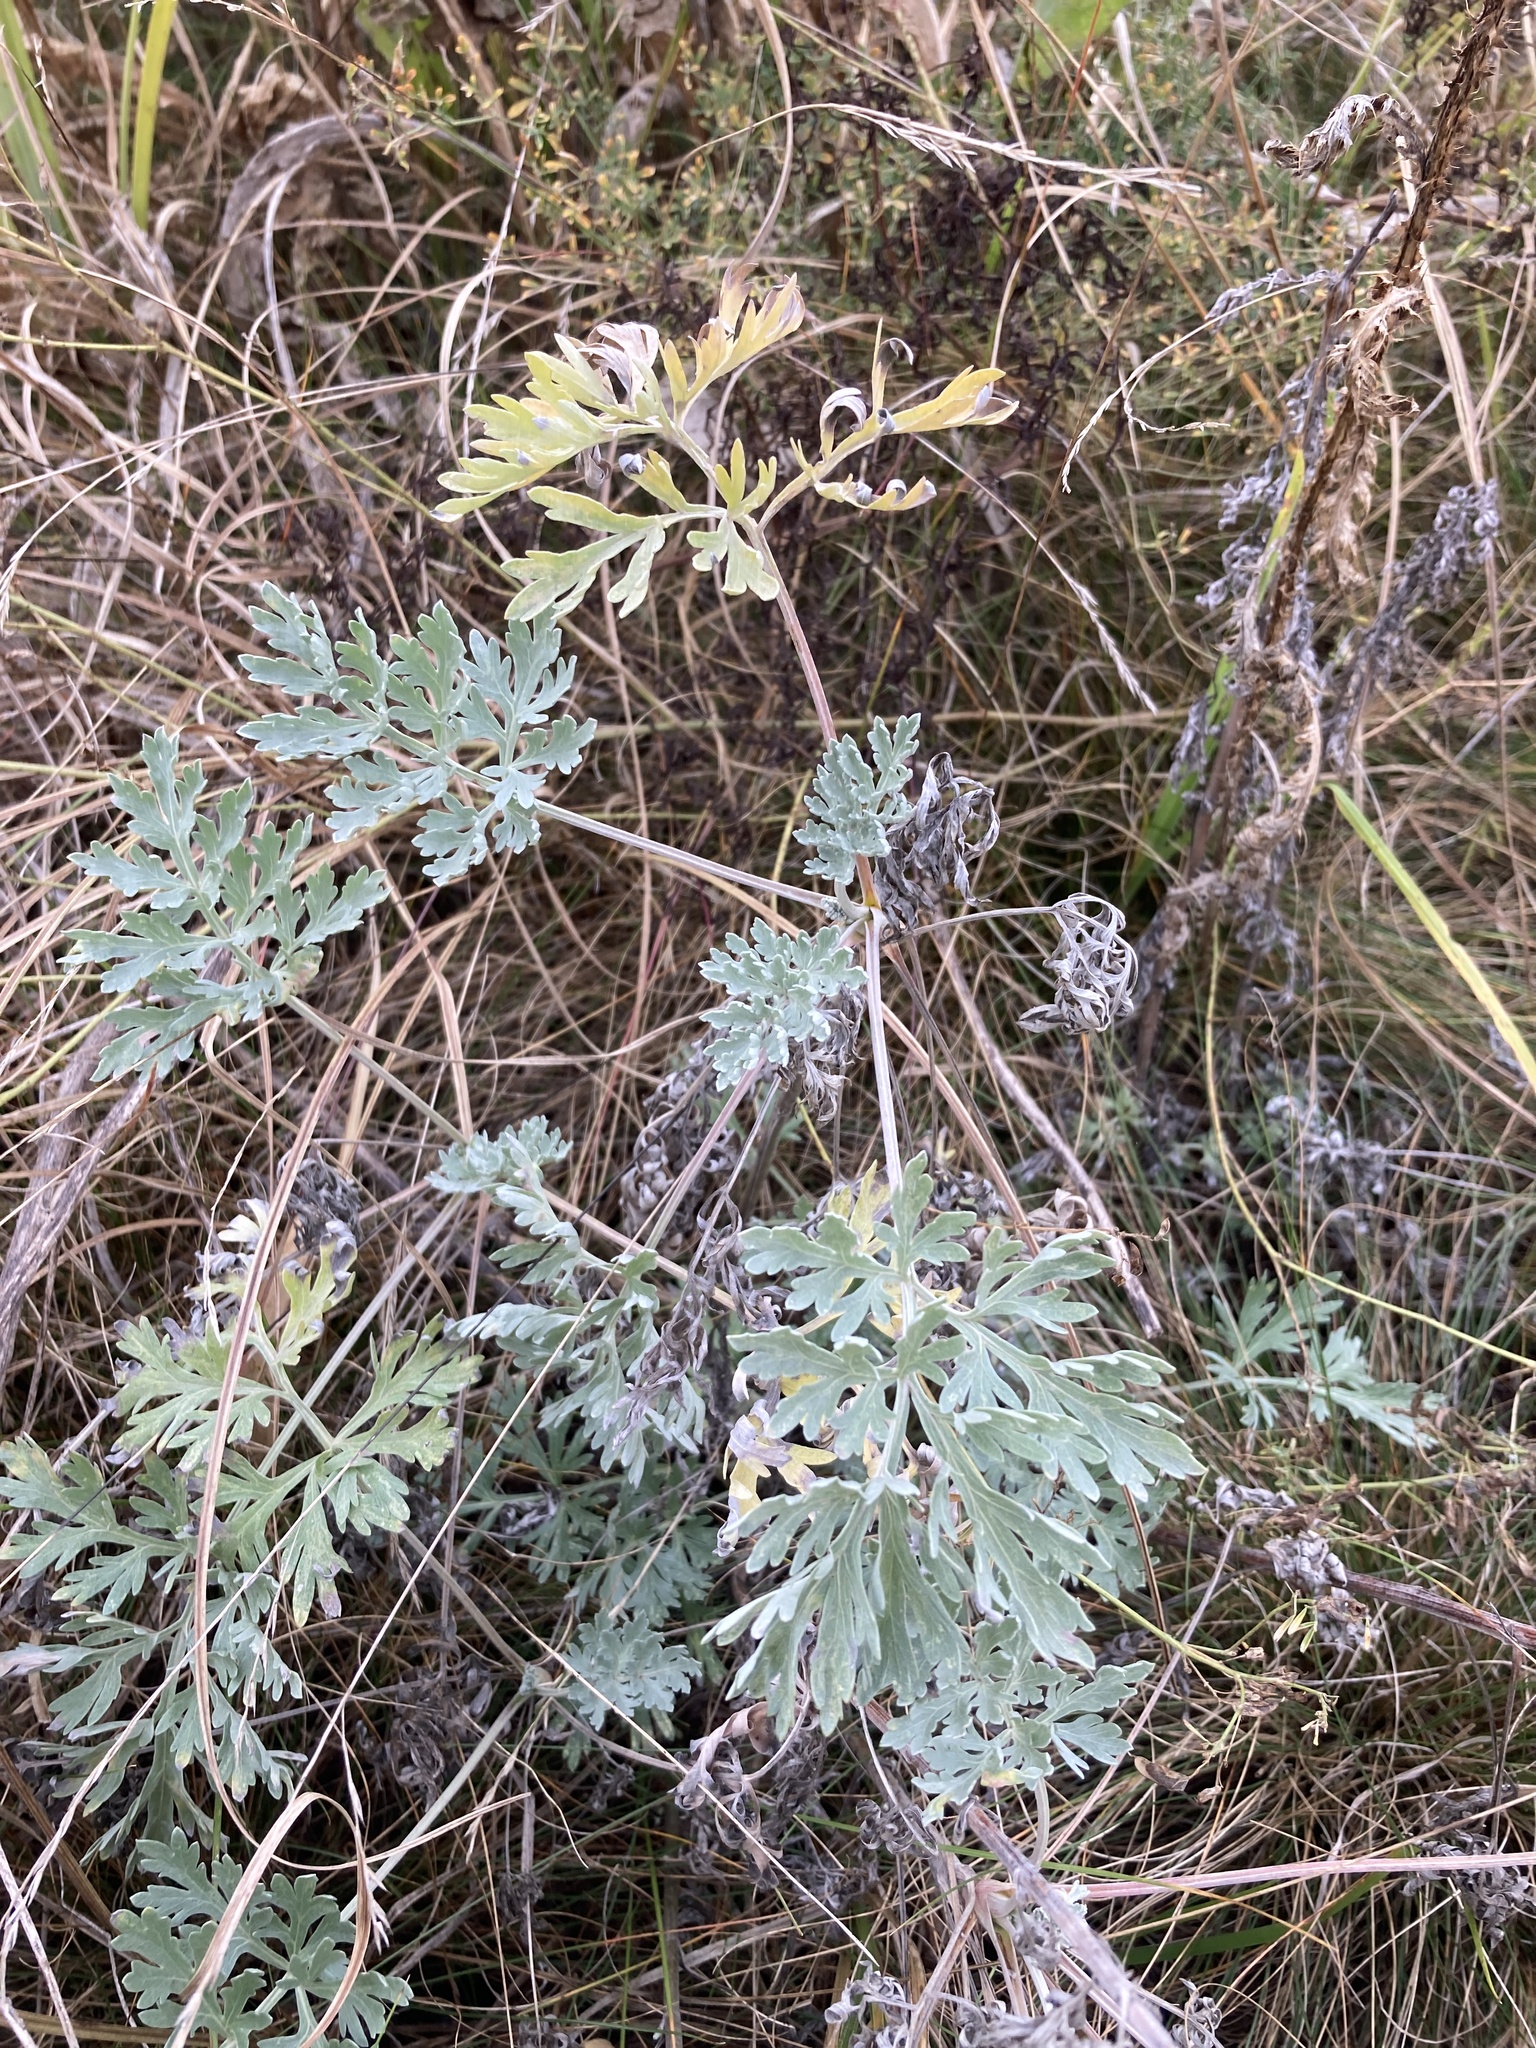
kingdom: Plantae
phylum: Tracheophyta
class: Magnoliopsida
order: Asterales
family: Asteraceae
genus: Artemisia
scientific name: Artemisia absinthium
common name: Wormwood
